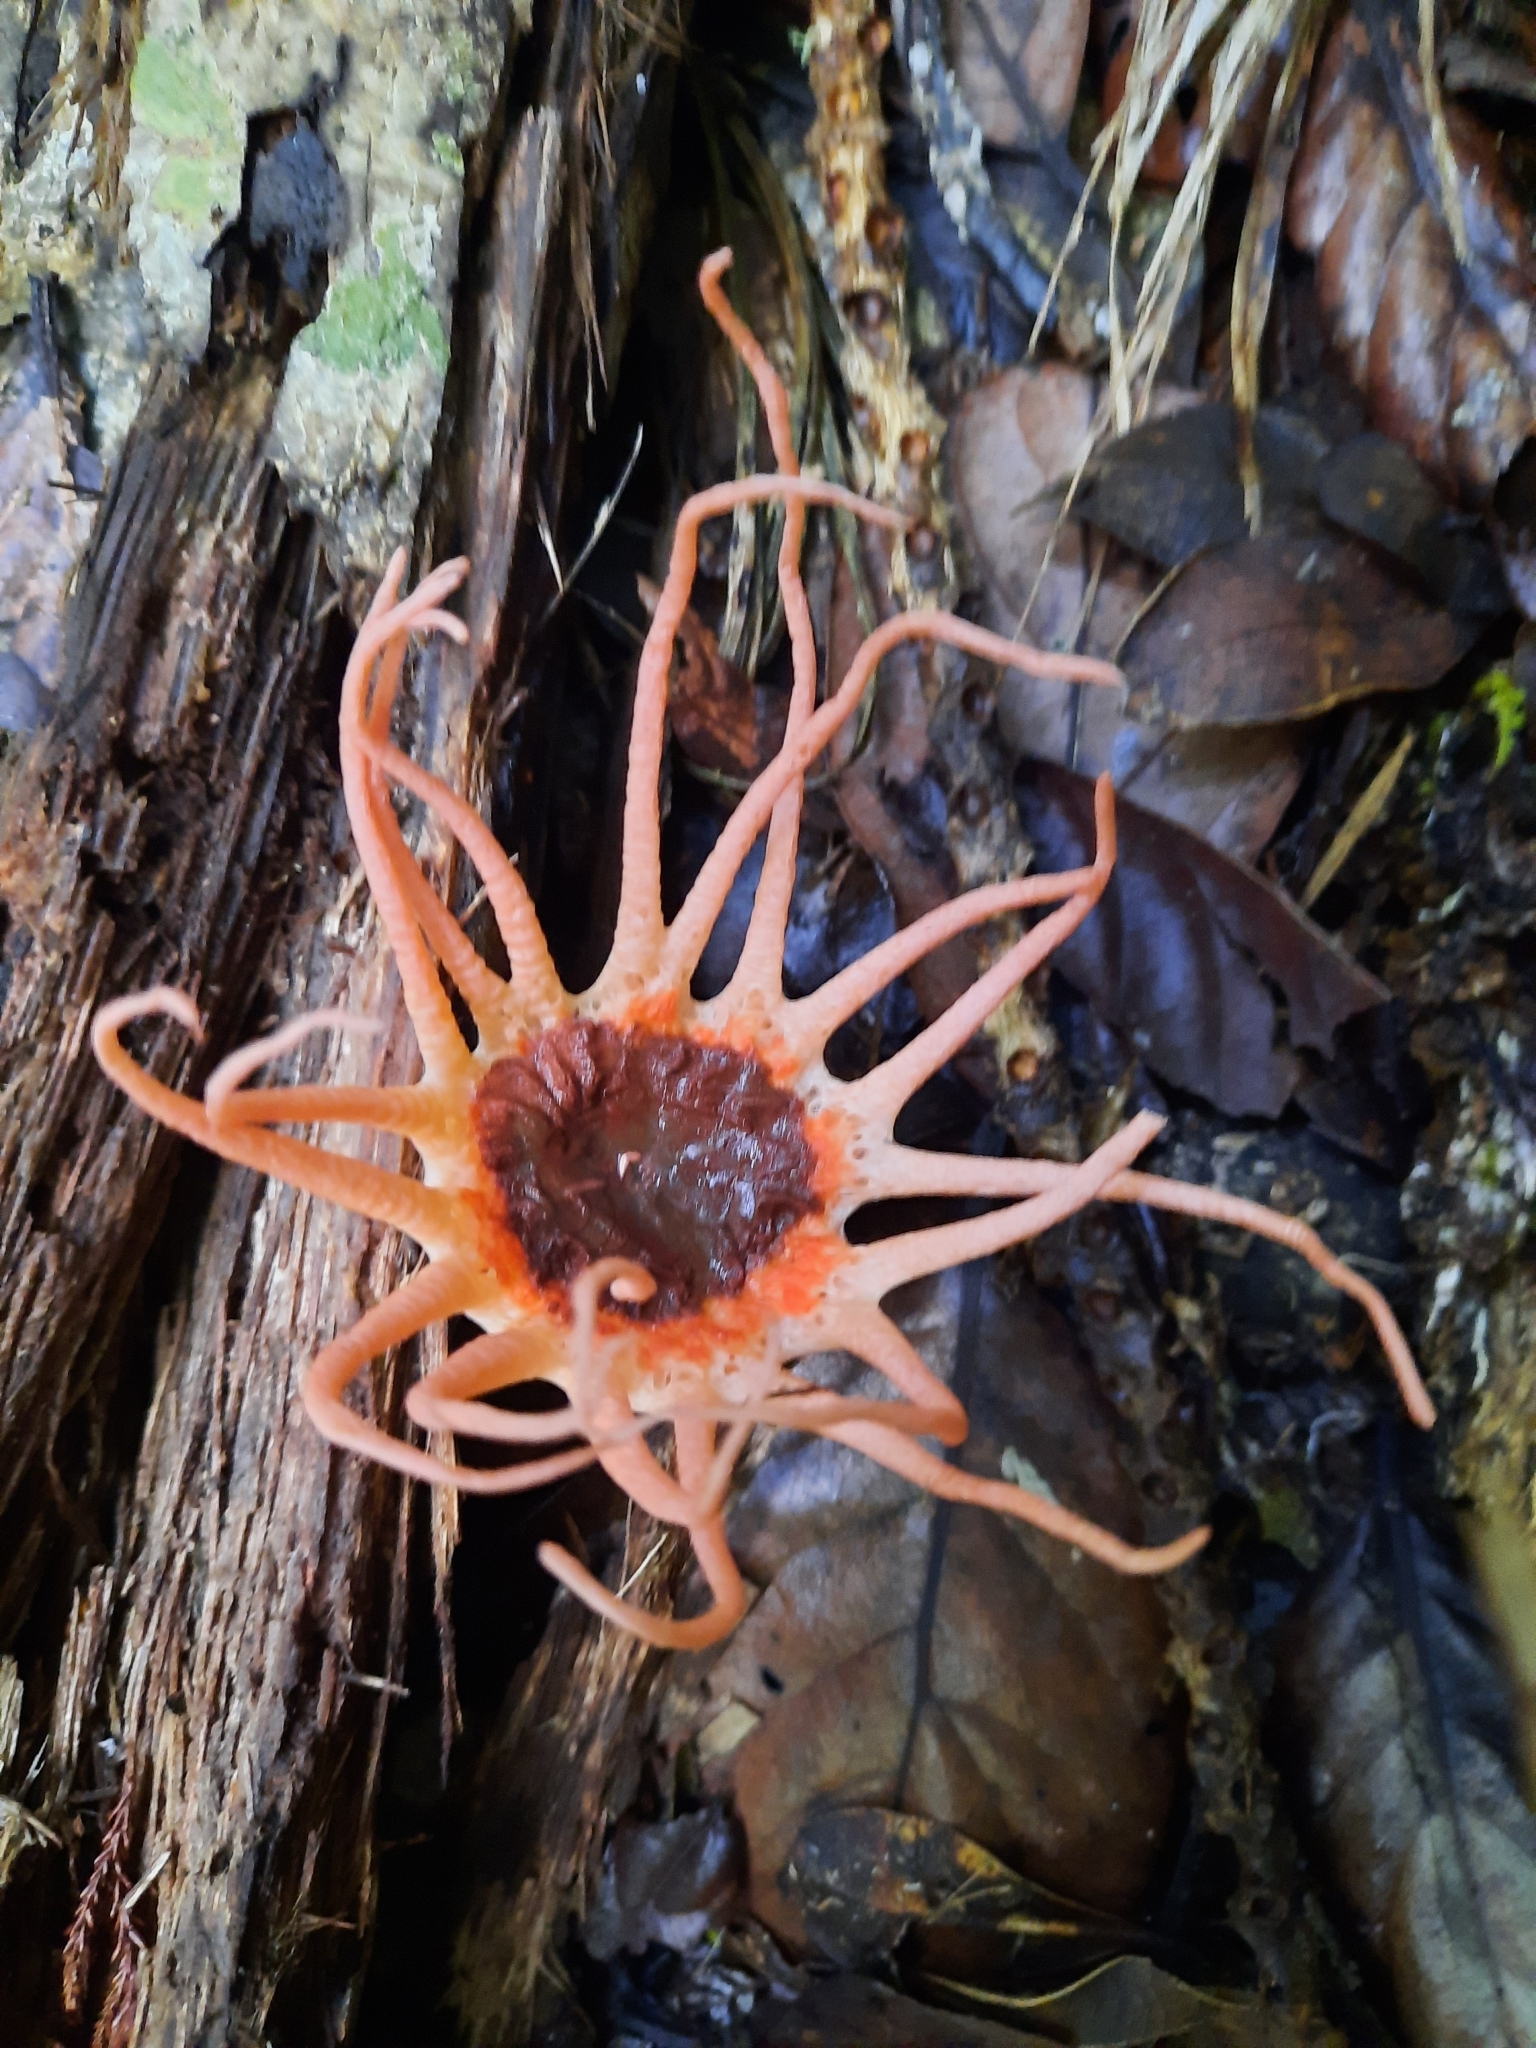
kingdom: Fungi
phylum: Basidiomycota
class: Agaricomycetes
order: Phallales
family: Phallaceae
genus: Aseroe
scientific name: Aseroe rubra
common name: Starfish fungus
